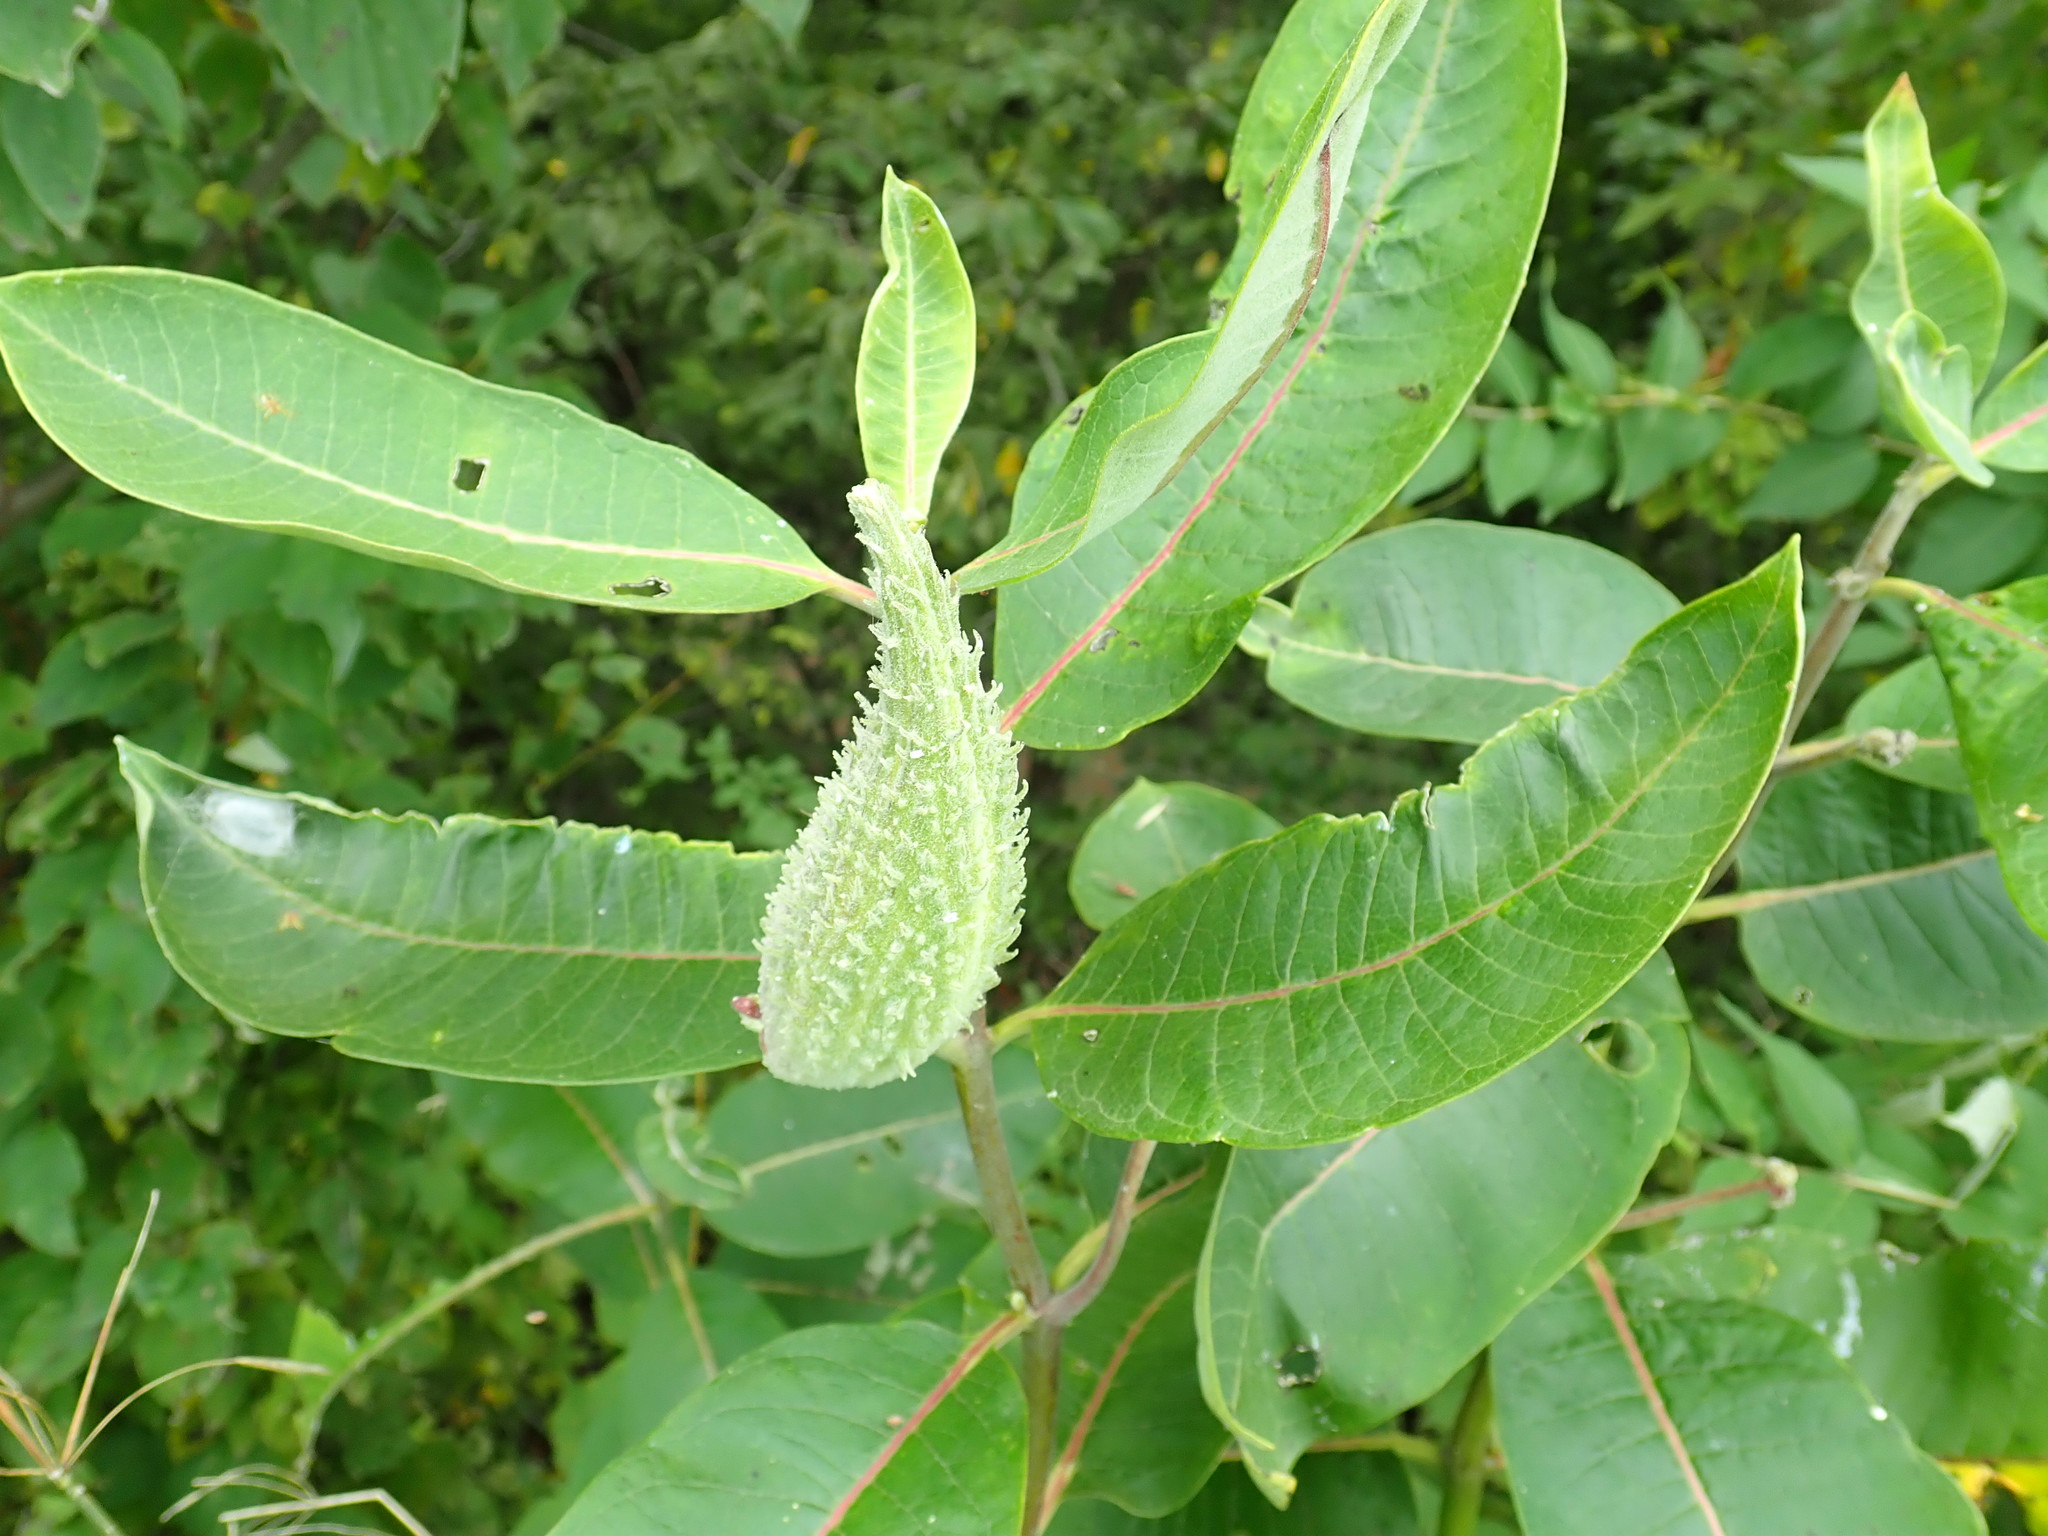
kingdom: Plantae
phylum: Tracheophyta
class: Magnoliopsida
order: Gentianales
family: Apocynaceae
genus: Asclepias
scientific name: Asclepias syriaca
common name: Common milkweed
